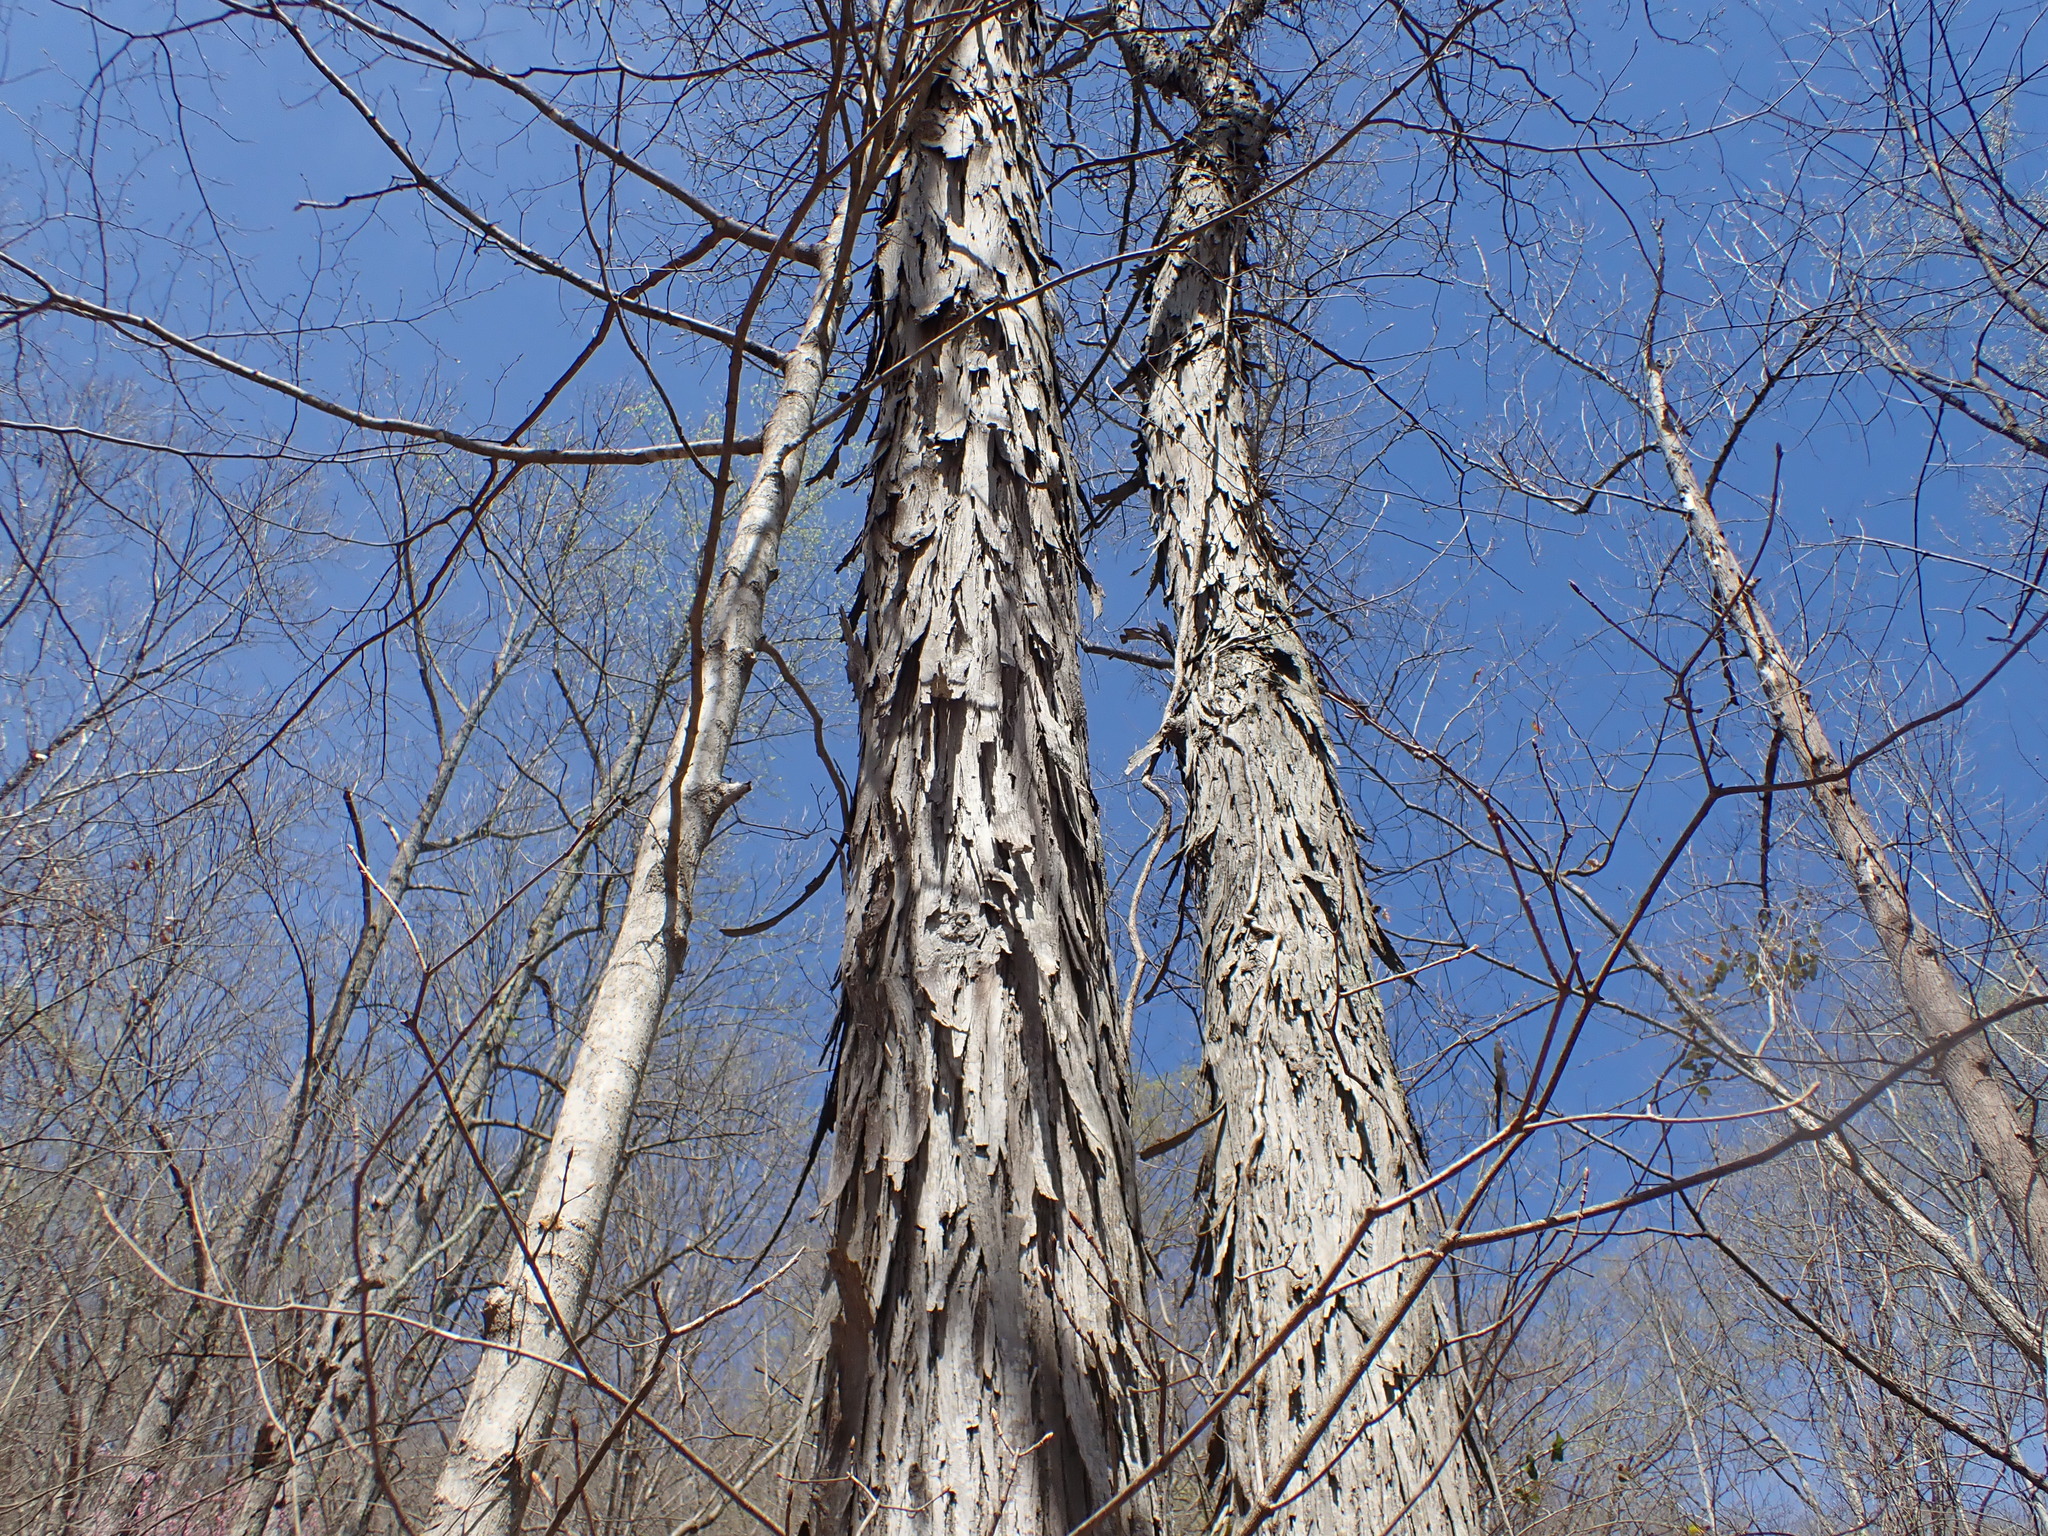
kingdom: Plantae
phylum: Tracheophyta
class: Magnoliopsida
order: Fagales
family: Juglandaceae
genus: Carya
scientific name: Carya ovata
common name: Shagbark hickory
